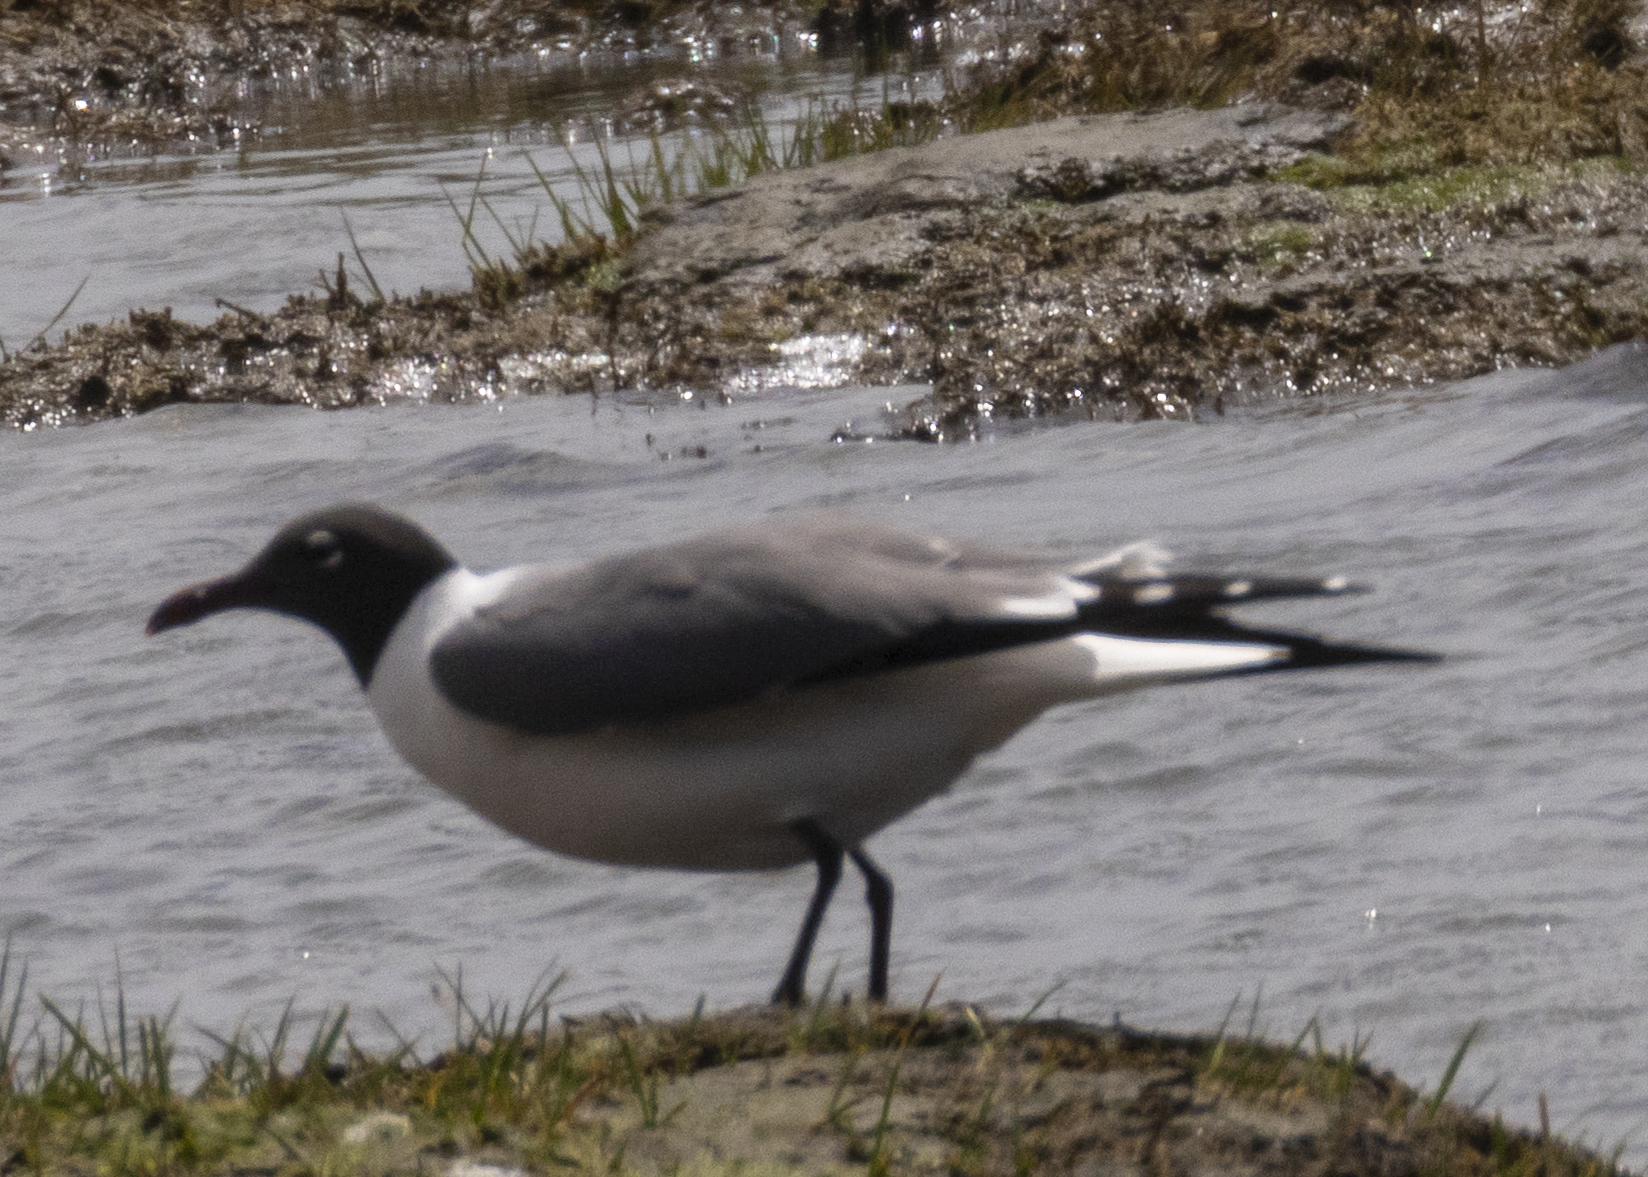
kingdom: Animalia
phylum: Chordata
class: Aves
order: Charadriiformes
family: Laridae
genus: Leucophaeus
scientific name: Leucophaeus atricilla
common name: Laughing gull
